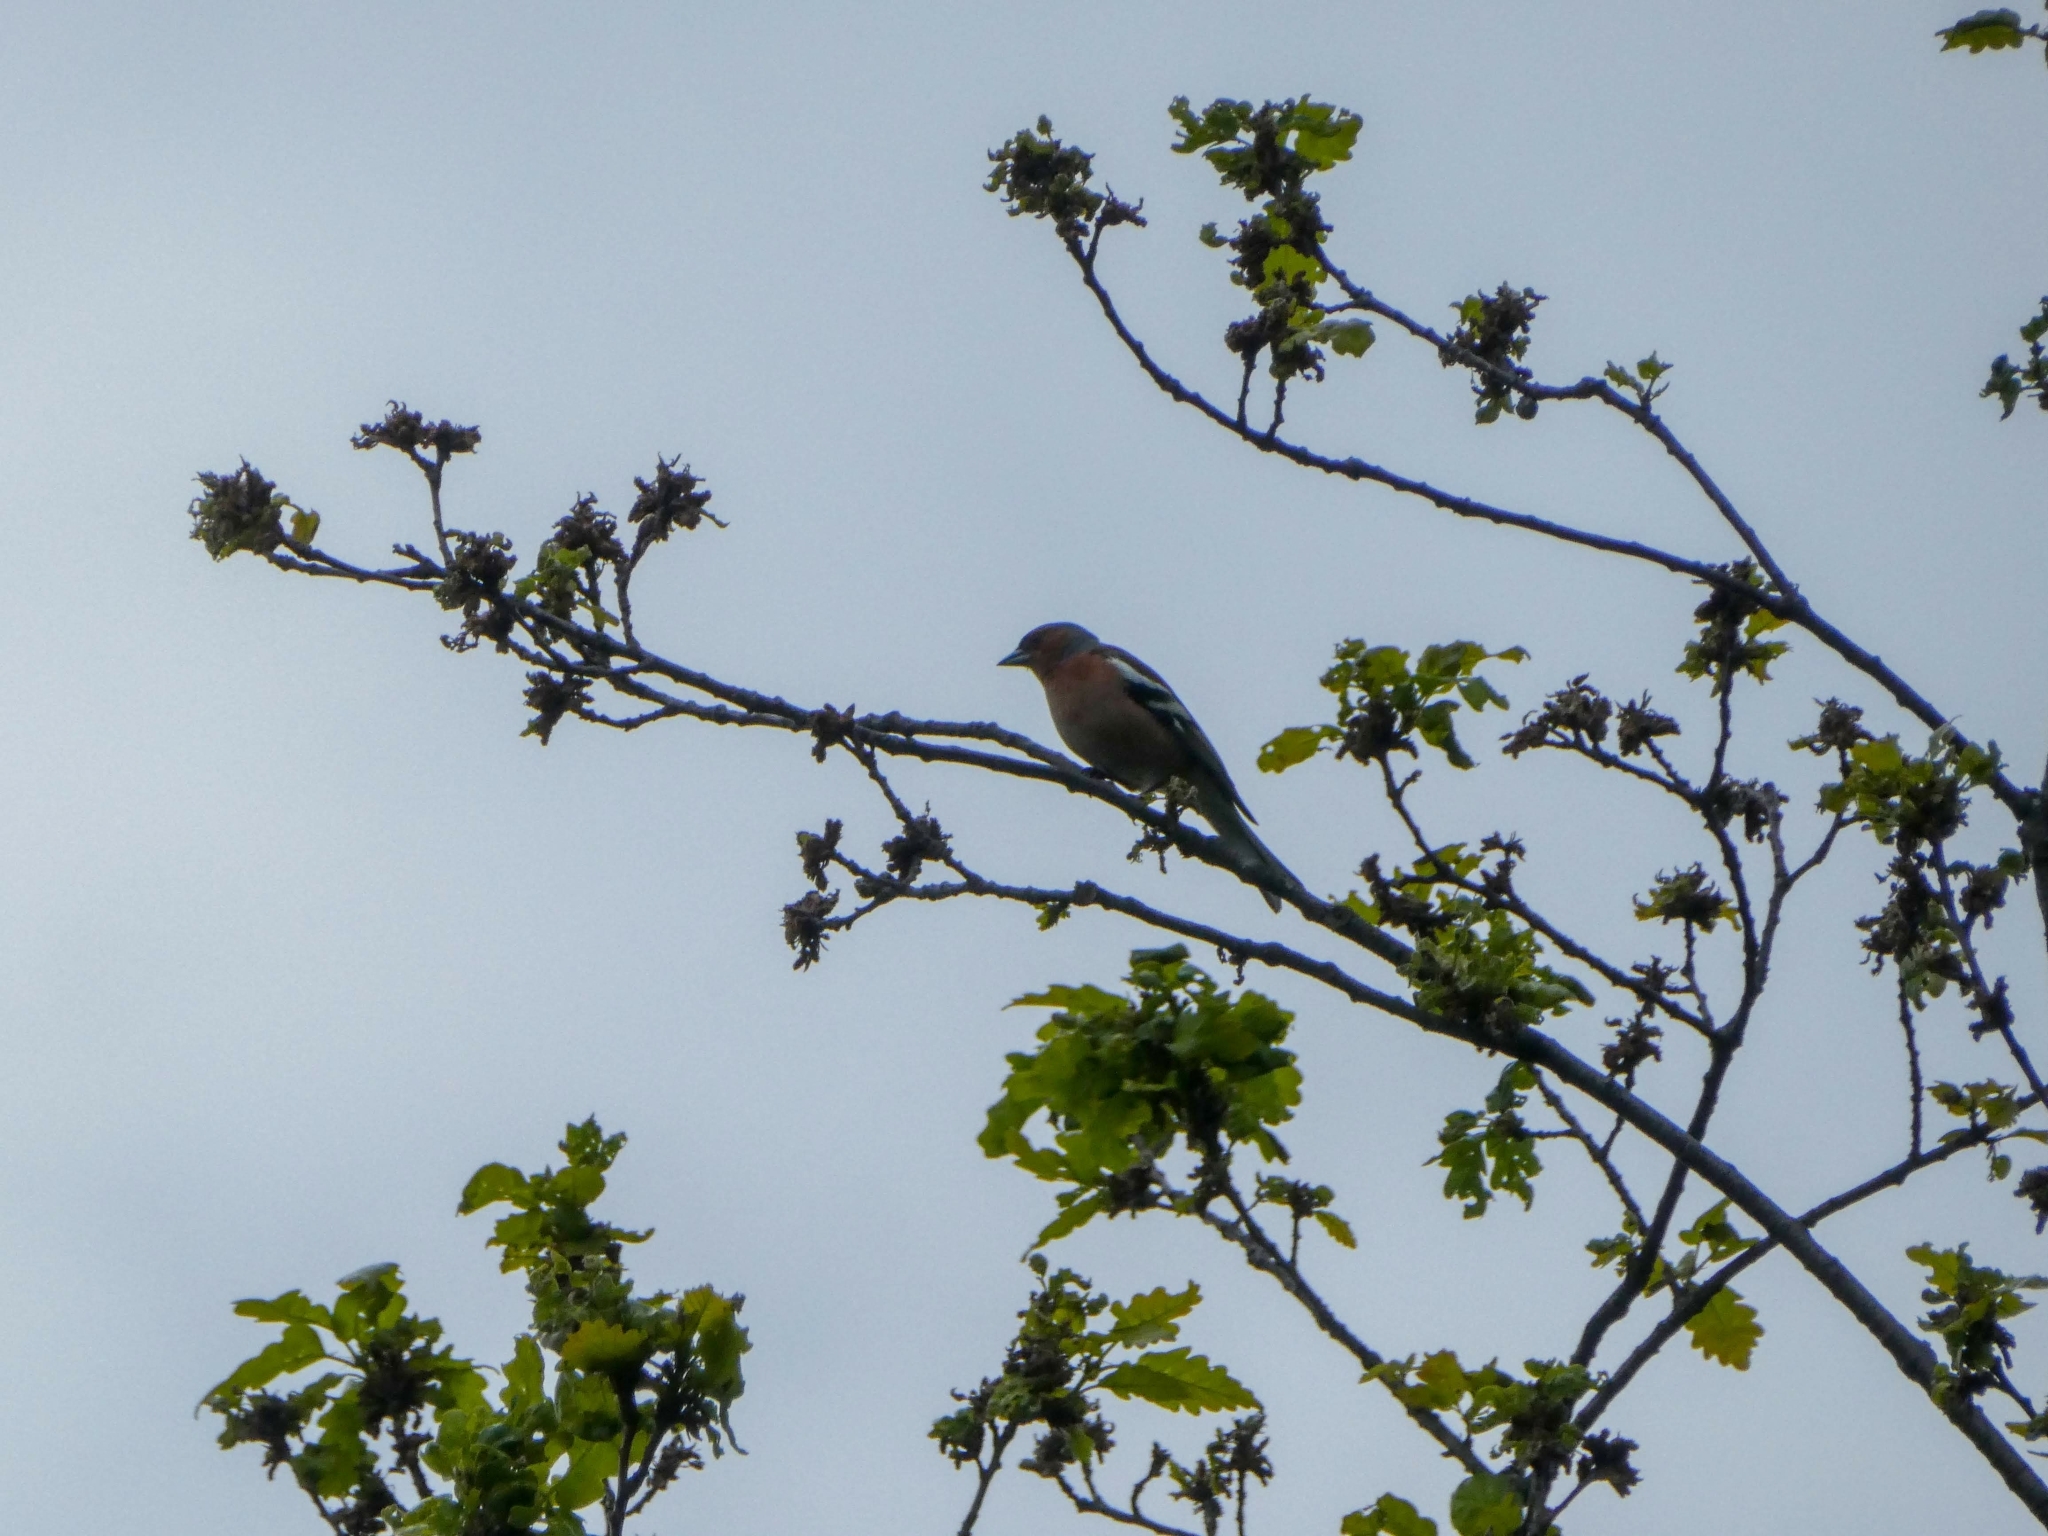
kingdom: Animalia
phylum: Chordata
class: Aves
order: Passeriformes
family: Fringillidae
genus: Fringilla
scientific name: Fringilla coelebs
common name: Common chaffinch
